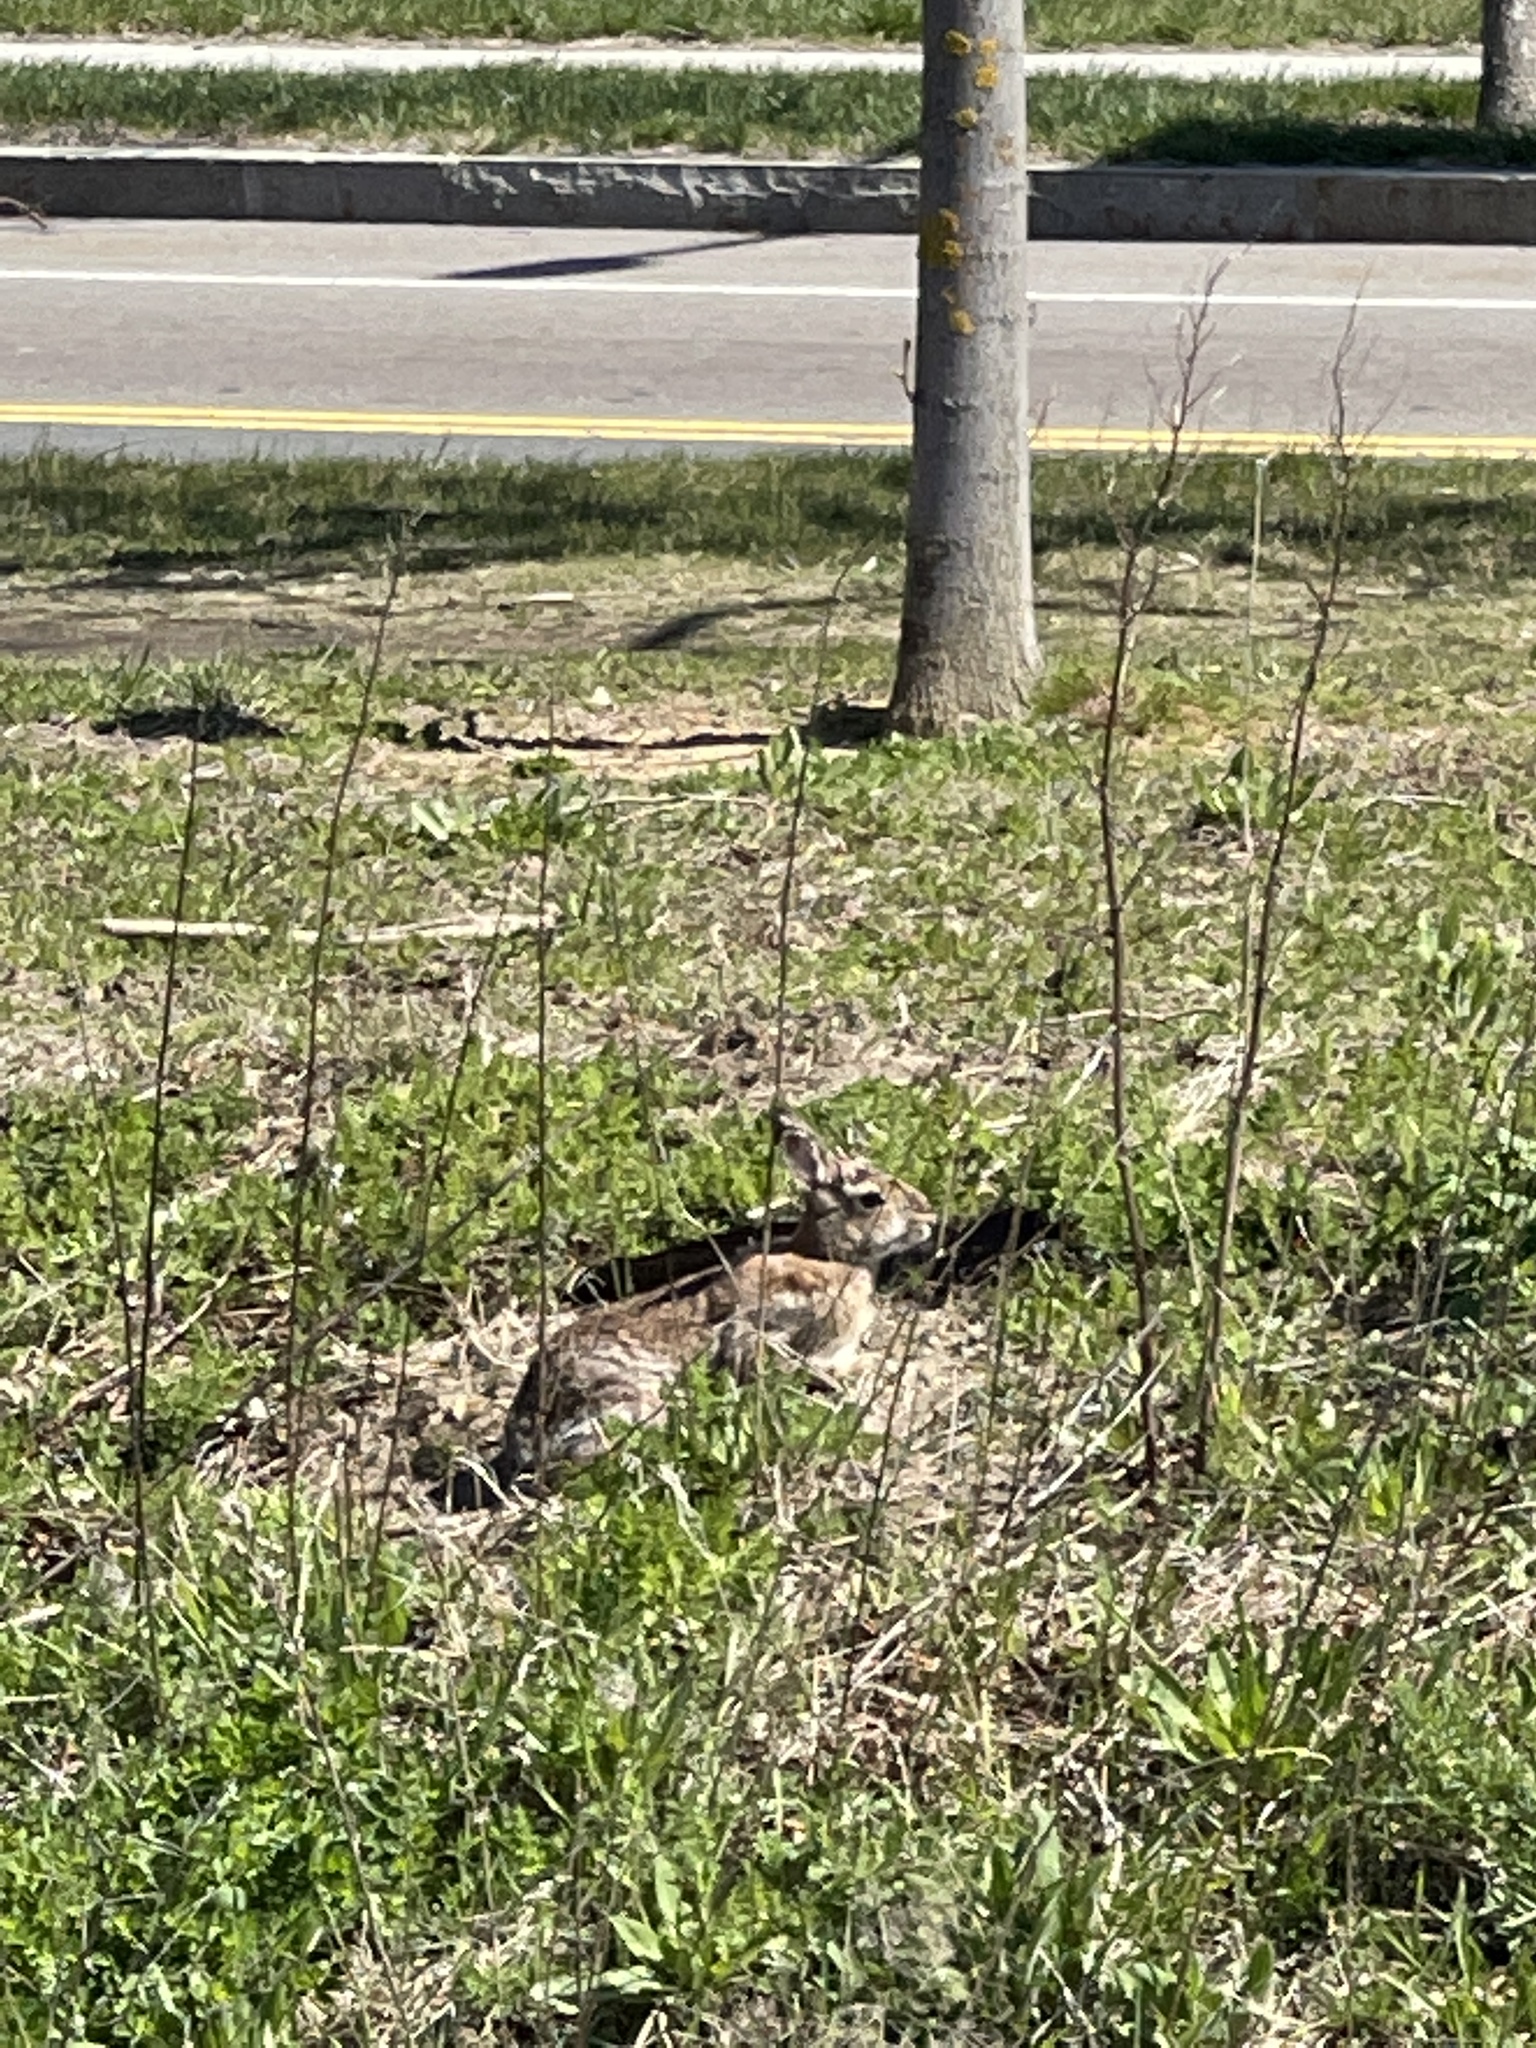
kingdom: Animalia
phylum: Chordata
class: Mammalia
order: Lagomorpha
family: Leporidae
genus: Sylvilagus
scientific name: Sylvilagus floridanus
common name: Eastern cottontail
